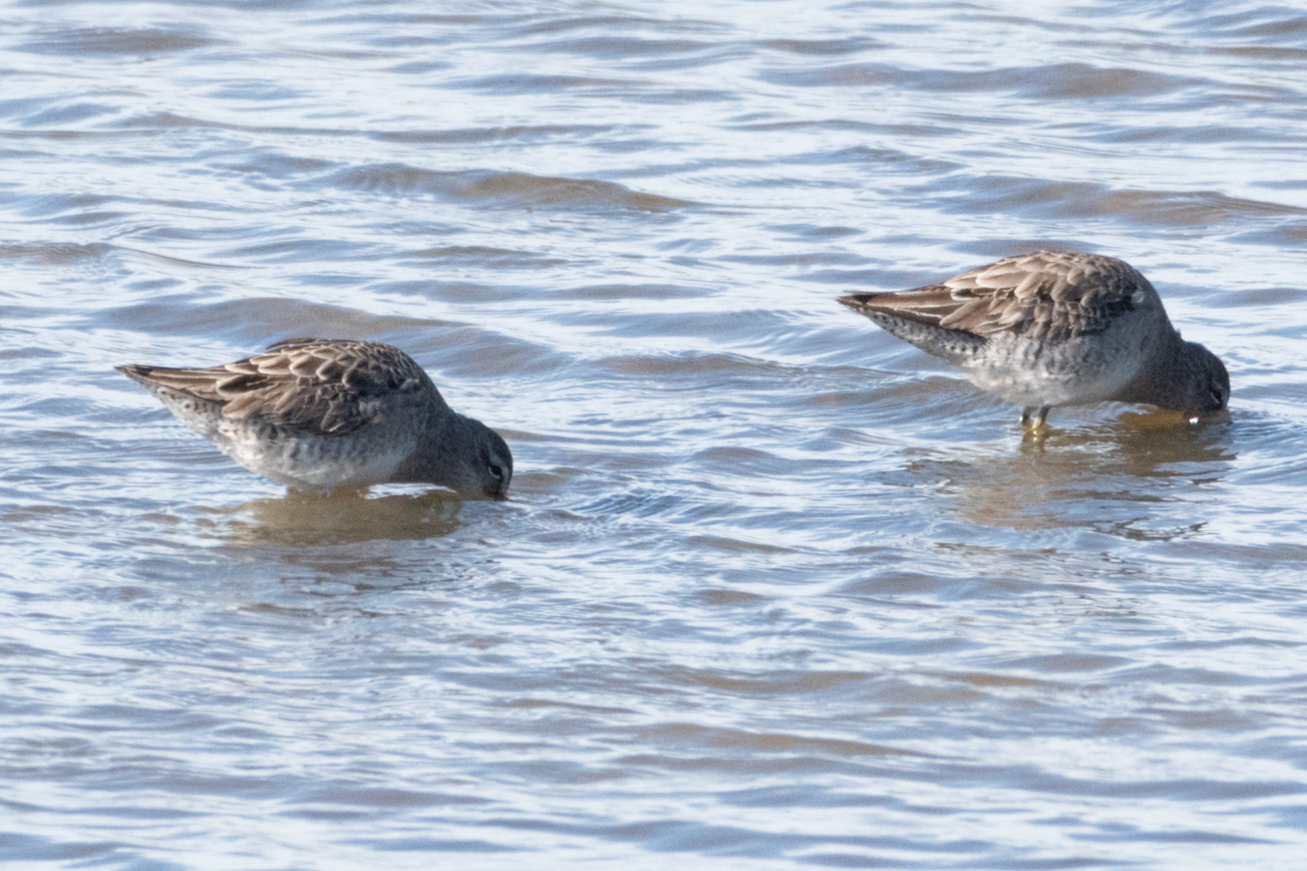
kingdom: Animalia
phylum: Chordata
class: Aves
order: Charadriiformes
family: Scolopacidae
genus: Limnodromus
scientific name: Limnodromus scolopaceus
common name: Long-billed dowitcher
